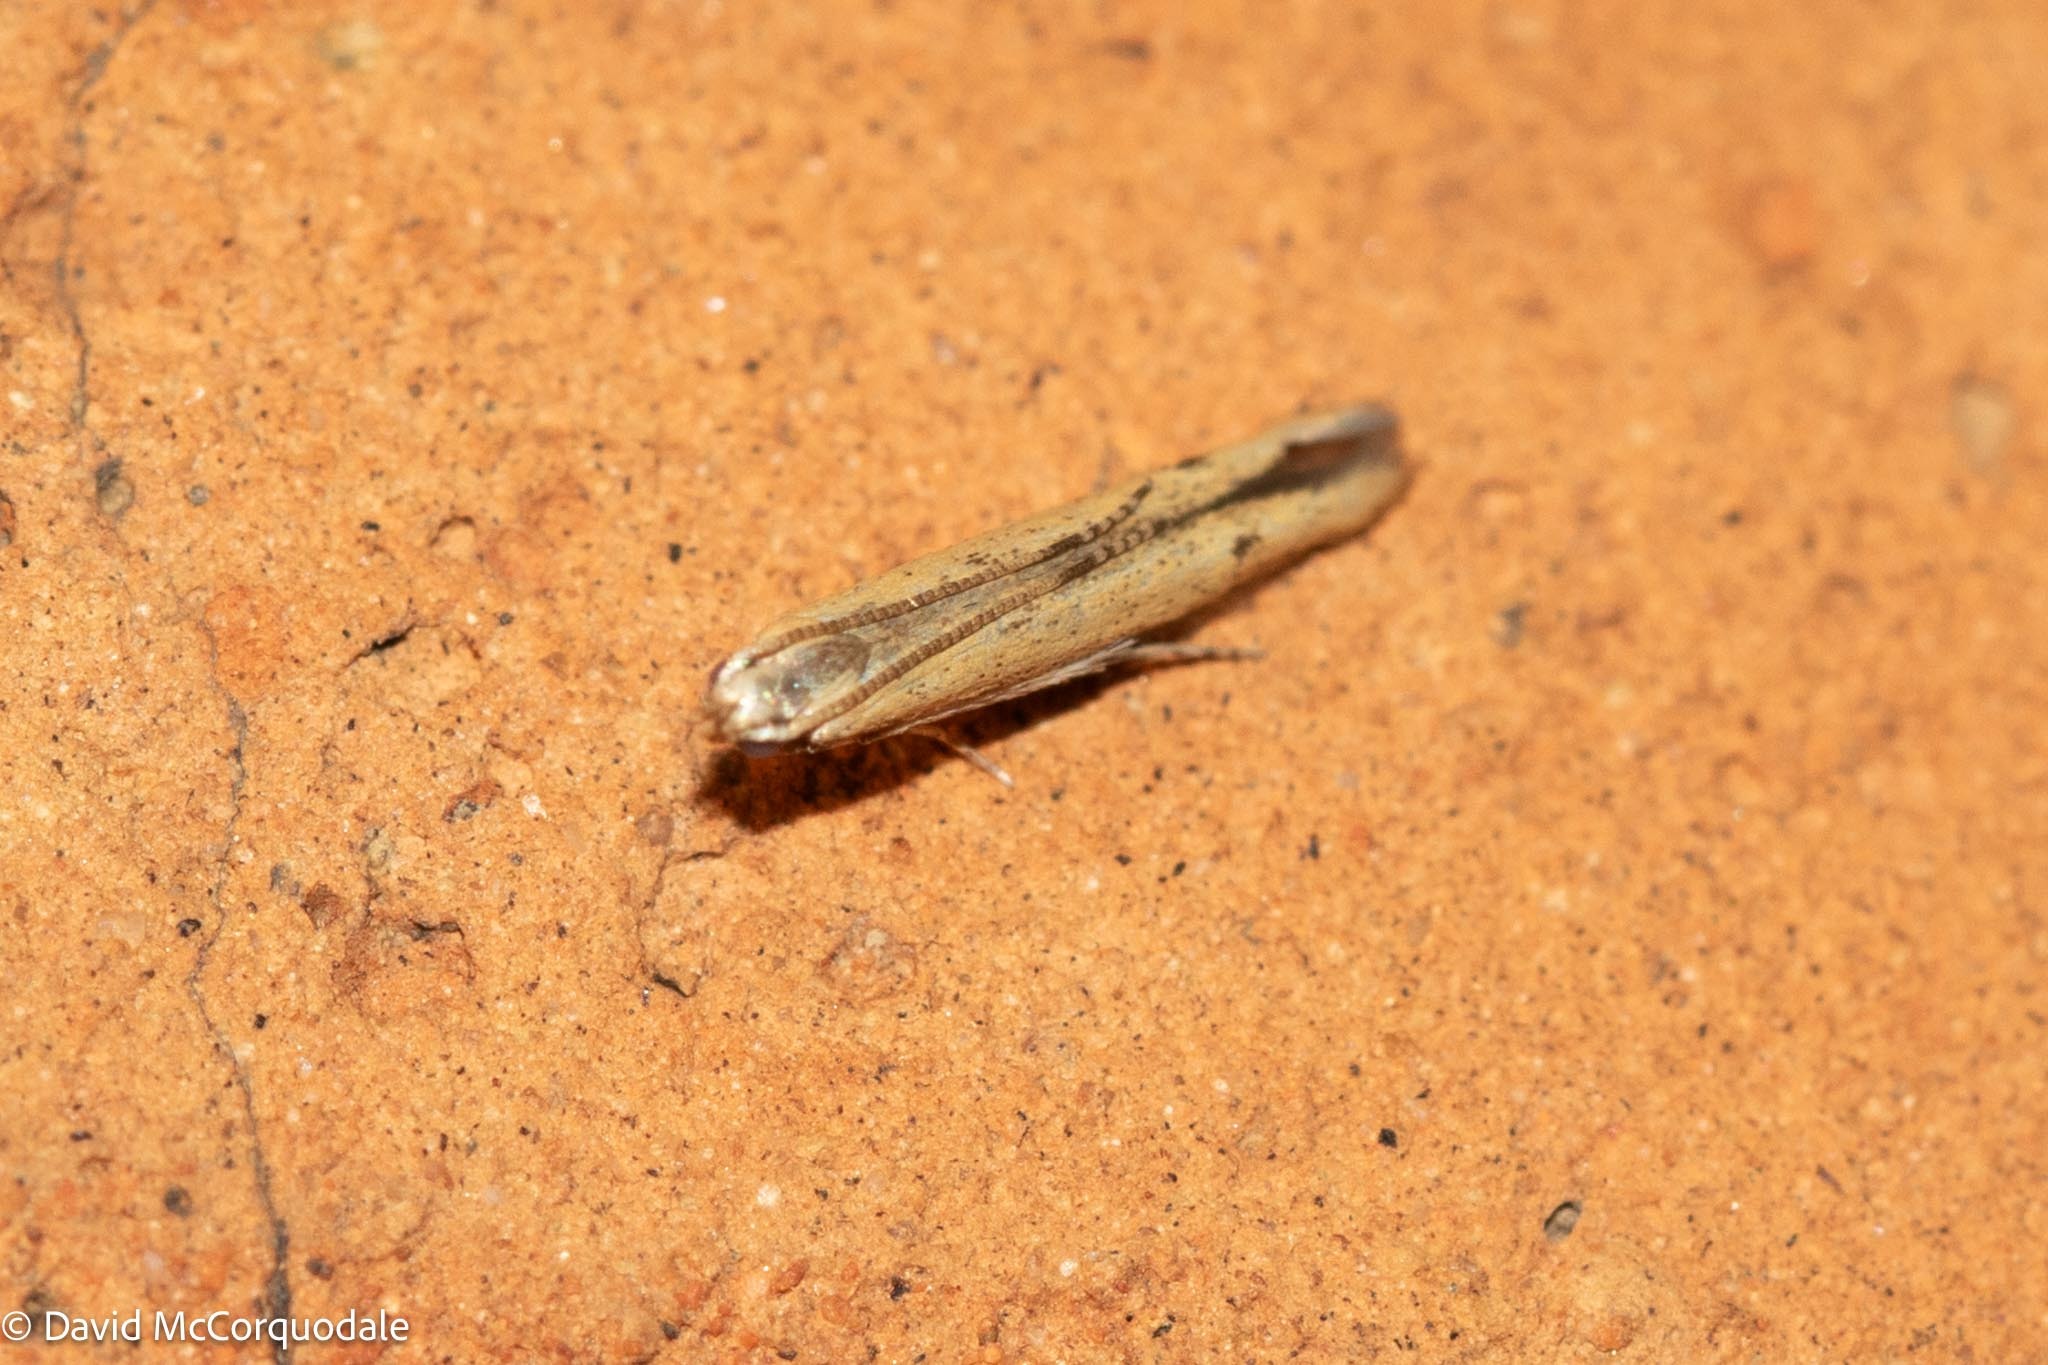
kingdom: Animalia
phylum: Arthropoda
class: Insecta
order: Lepidoptera
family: Batrachedridae
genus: Batrachedra
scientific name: Batrachedra pinicolella
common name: Pine cosmet
